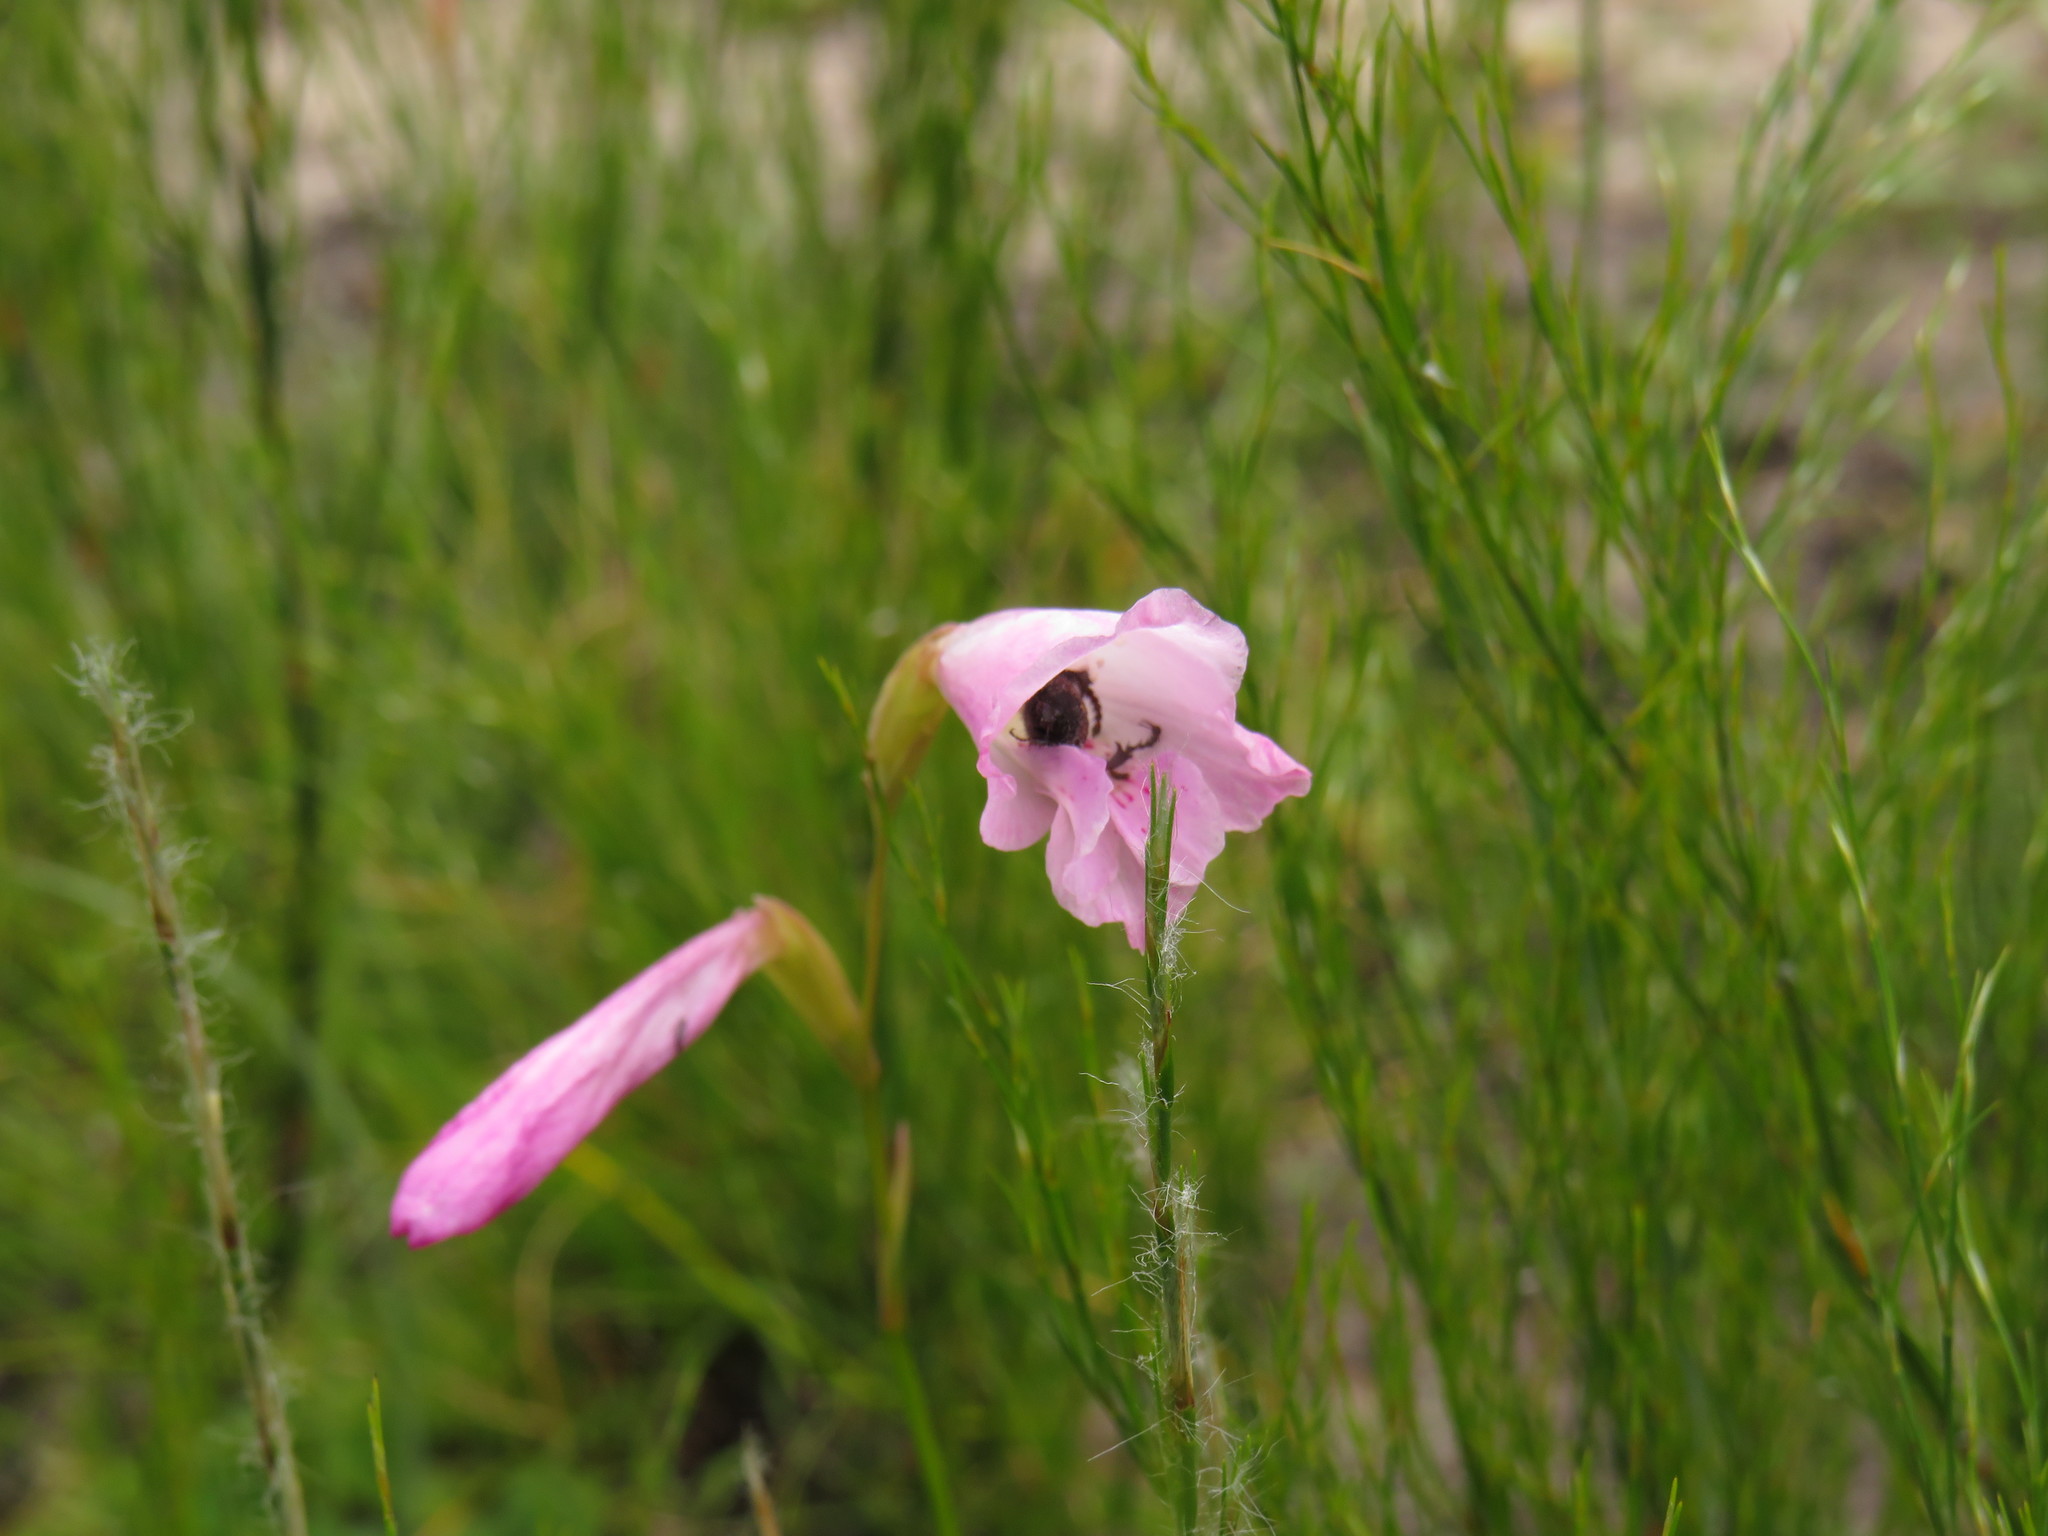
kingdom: Plantae
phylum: Tracheophyta
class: Liliopsida
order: Asparagales
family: Iridaceae
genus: Gladiolus
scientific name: Gladiolus hirsutus
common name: Small pink afrikaner
